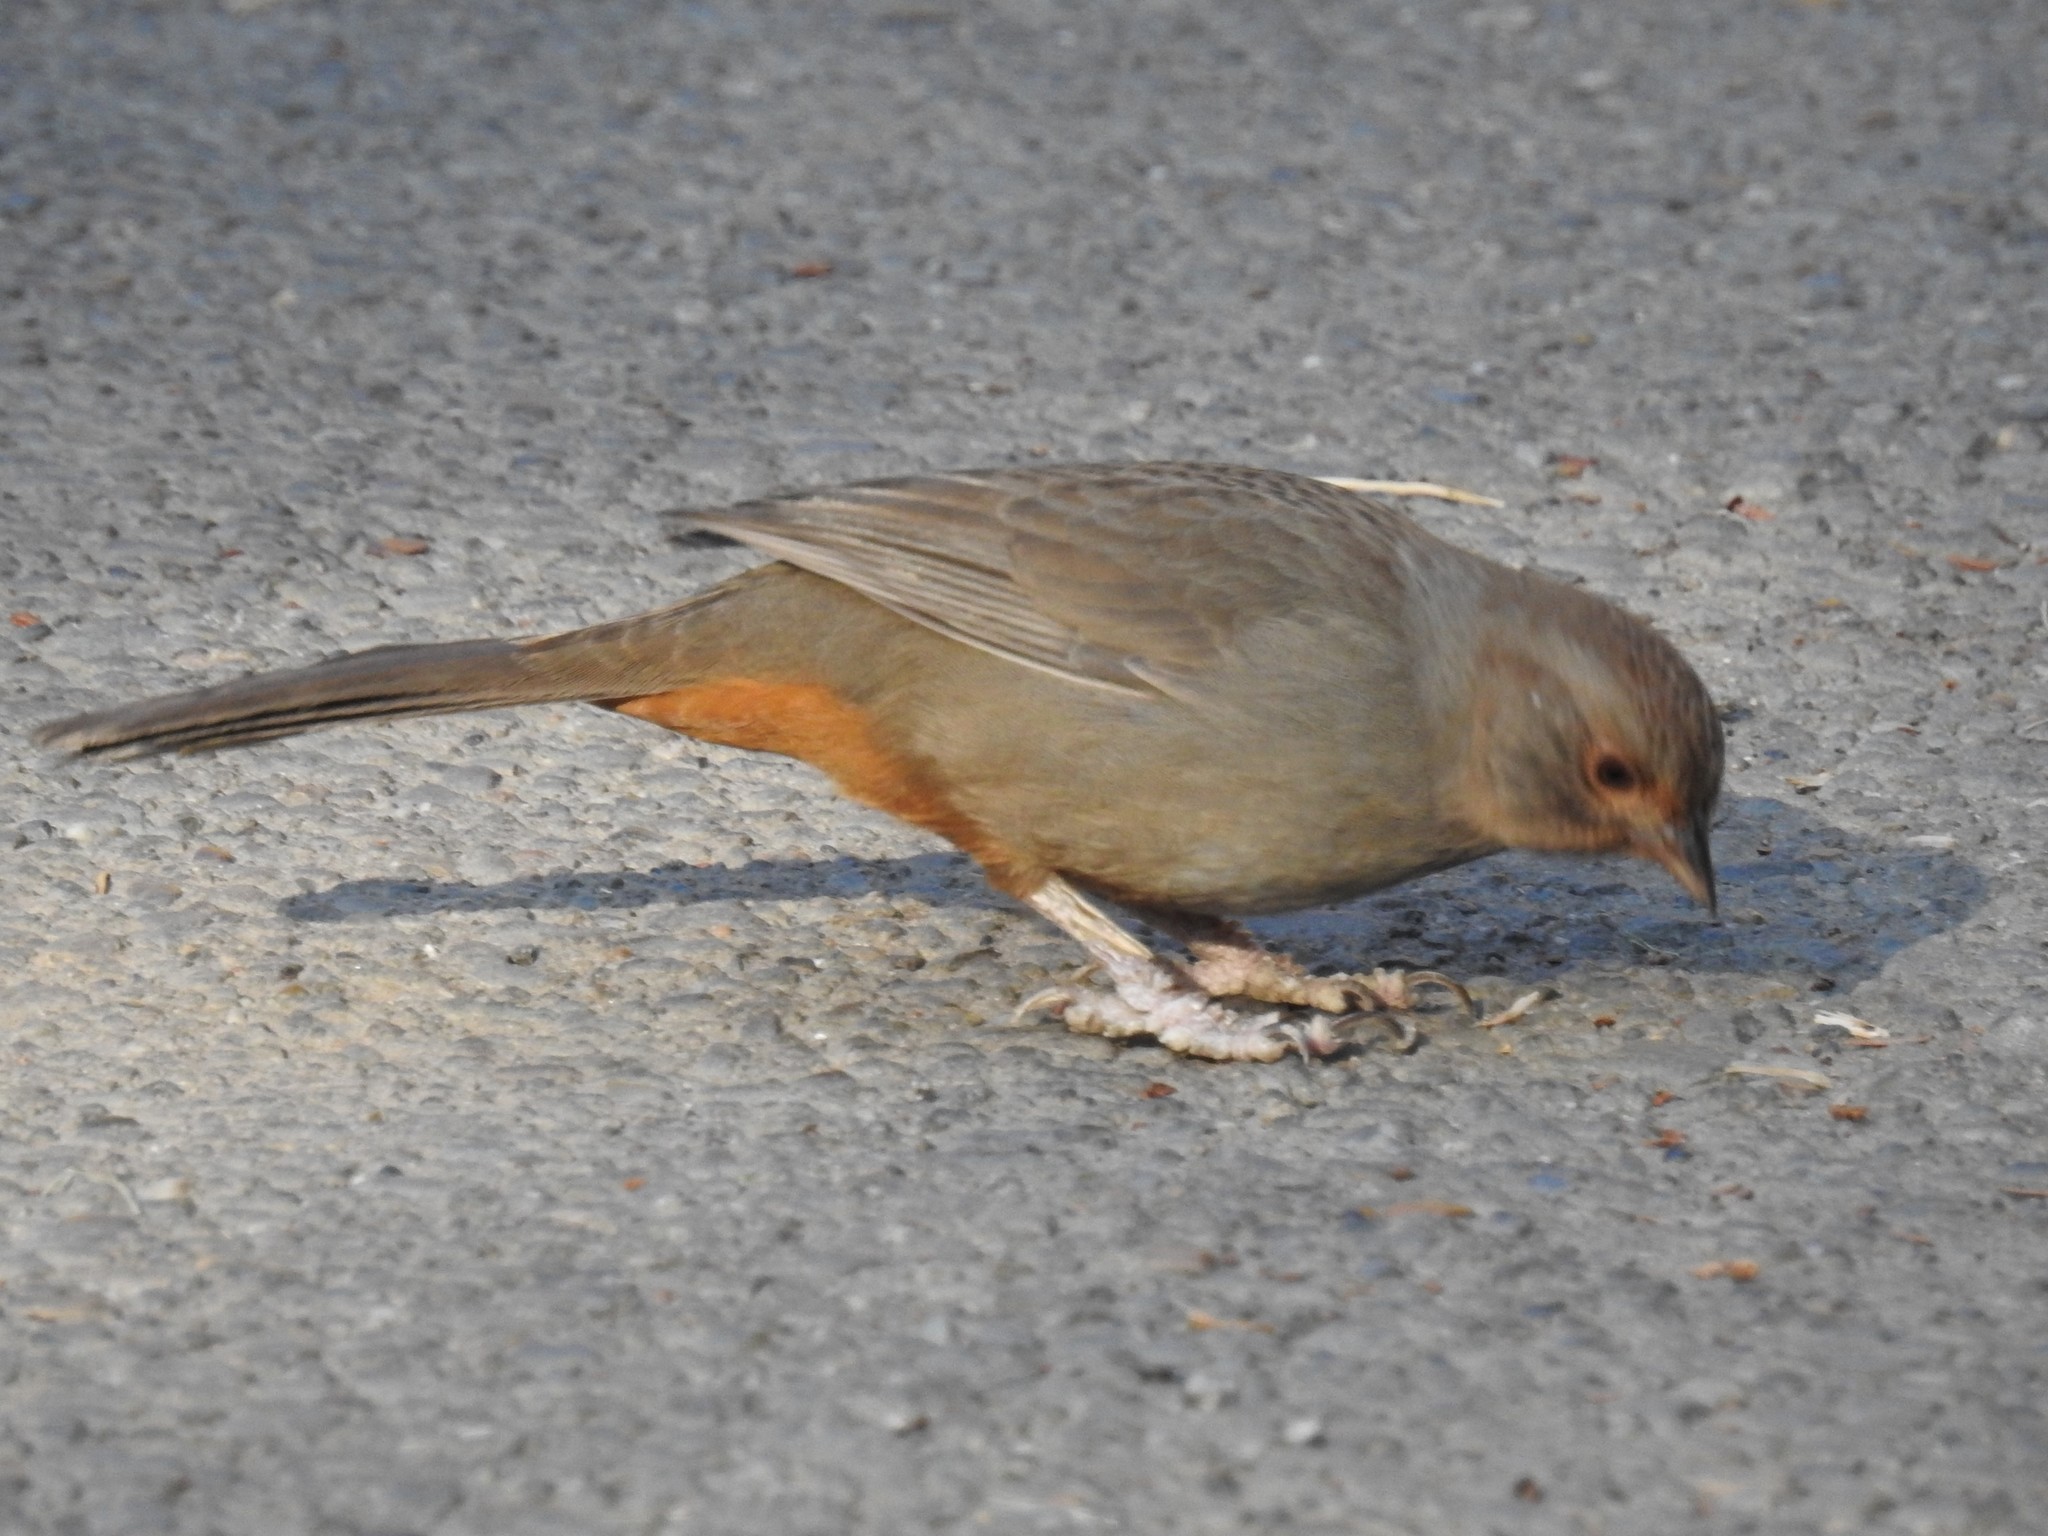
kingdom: Animalia
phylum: Chordata
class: Aves
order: Passeriformes
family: Passerellidae
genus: Melozone
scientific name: Melozone crissalis
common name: California towhee
